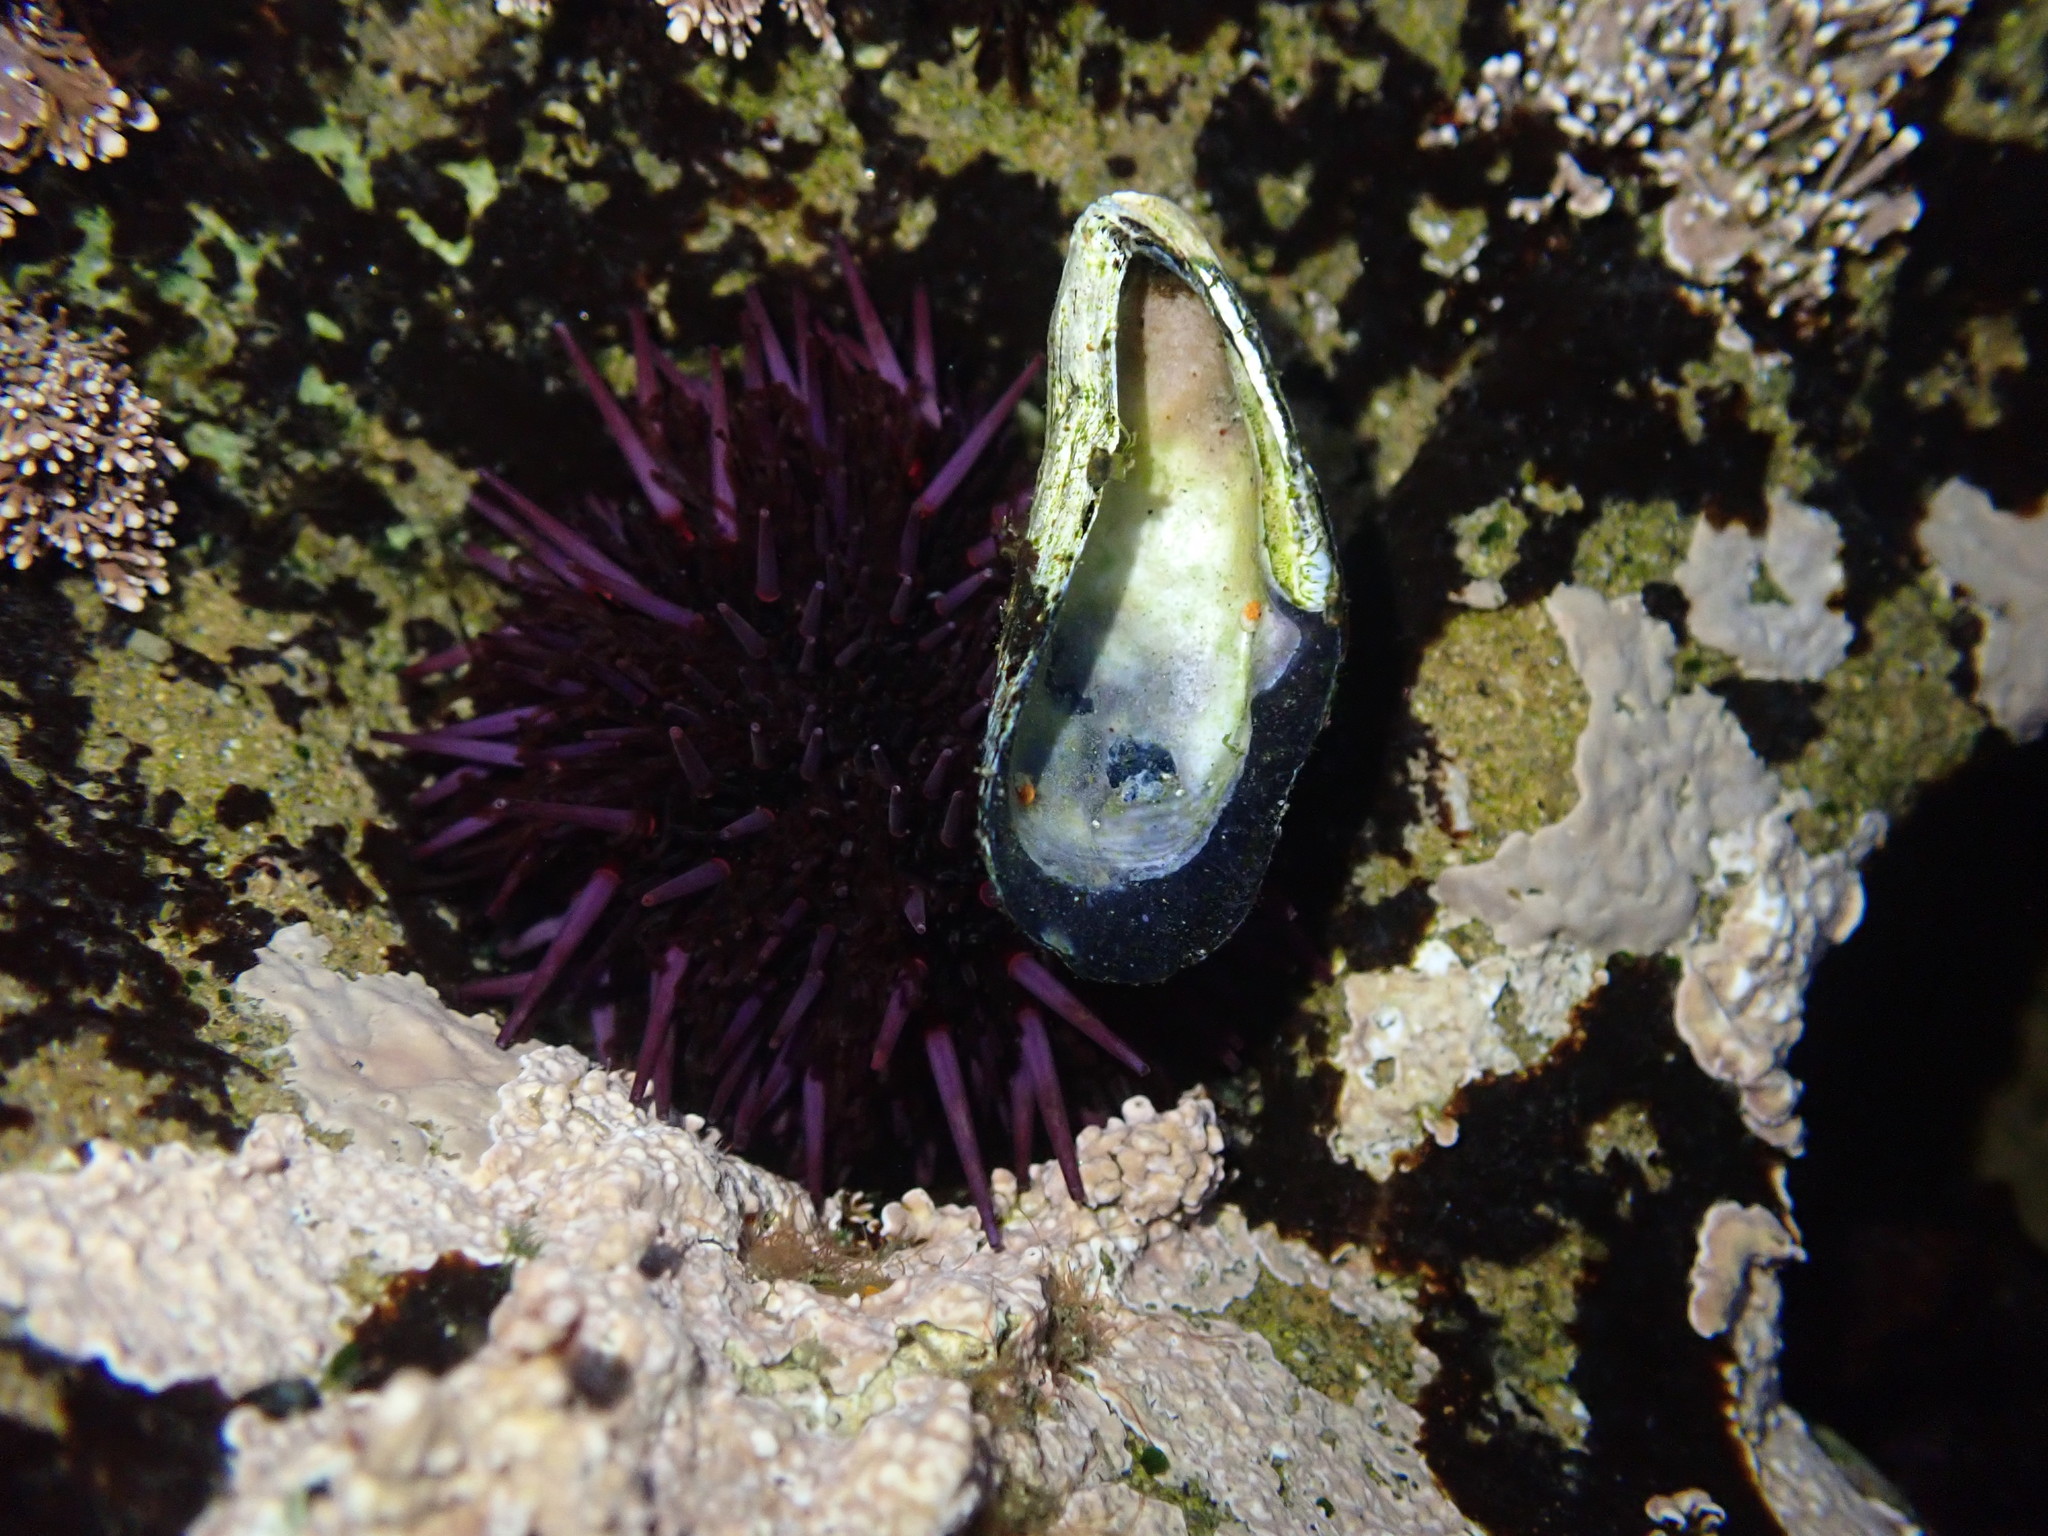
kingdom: Animalia
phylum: Echinodermata
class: Echinoidea
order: Camarodonta
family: Strongylocentrotidae
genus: Strongylocentrotus
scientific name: Strongylocentrotus purpuratus
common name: Purple sea urchin
